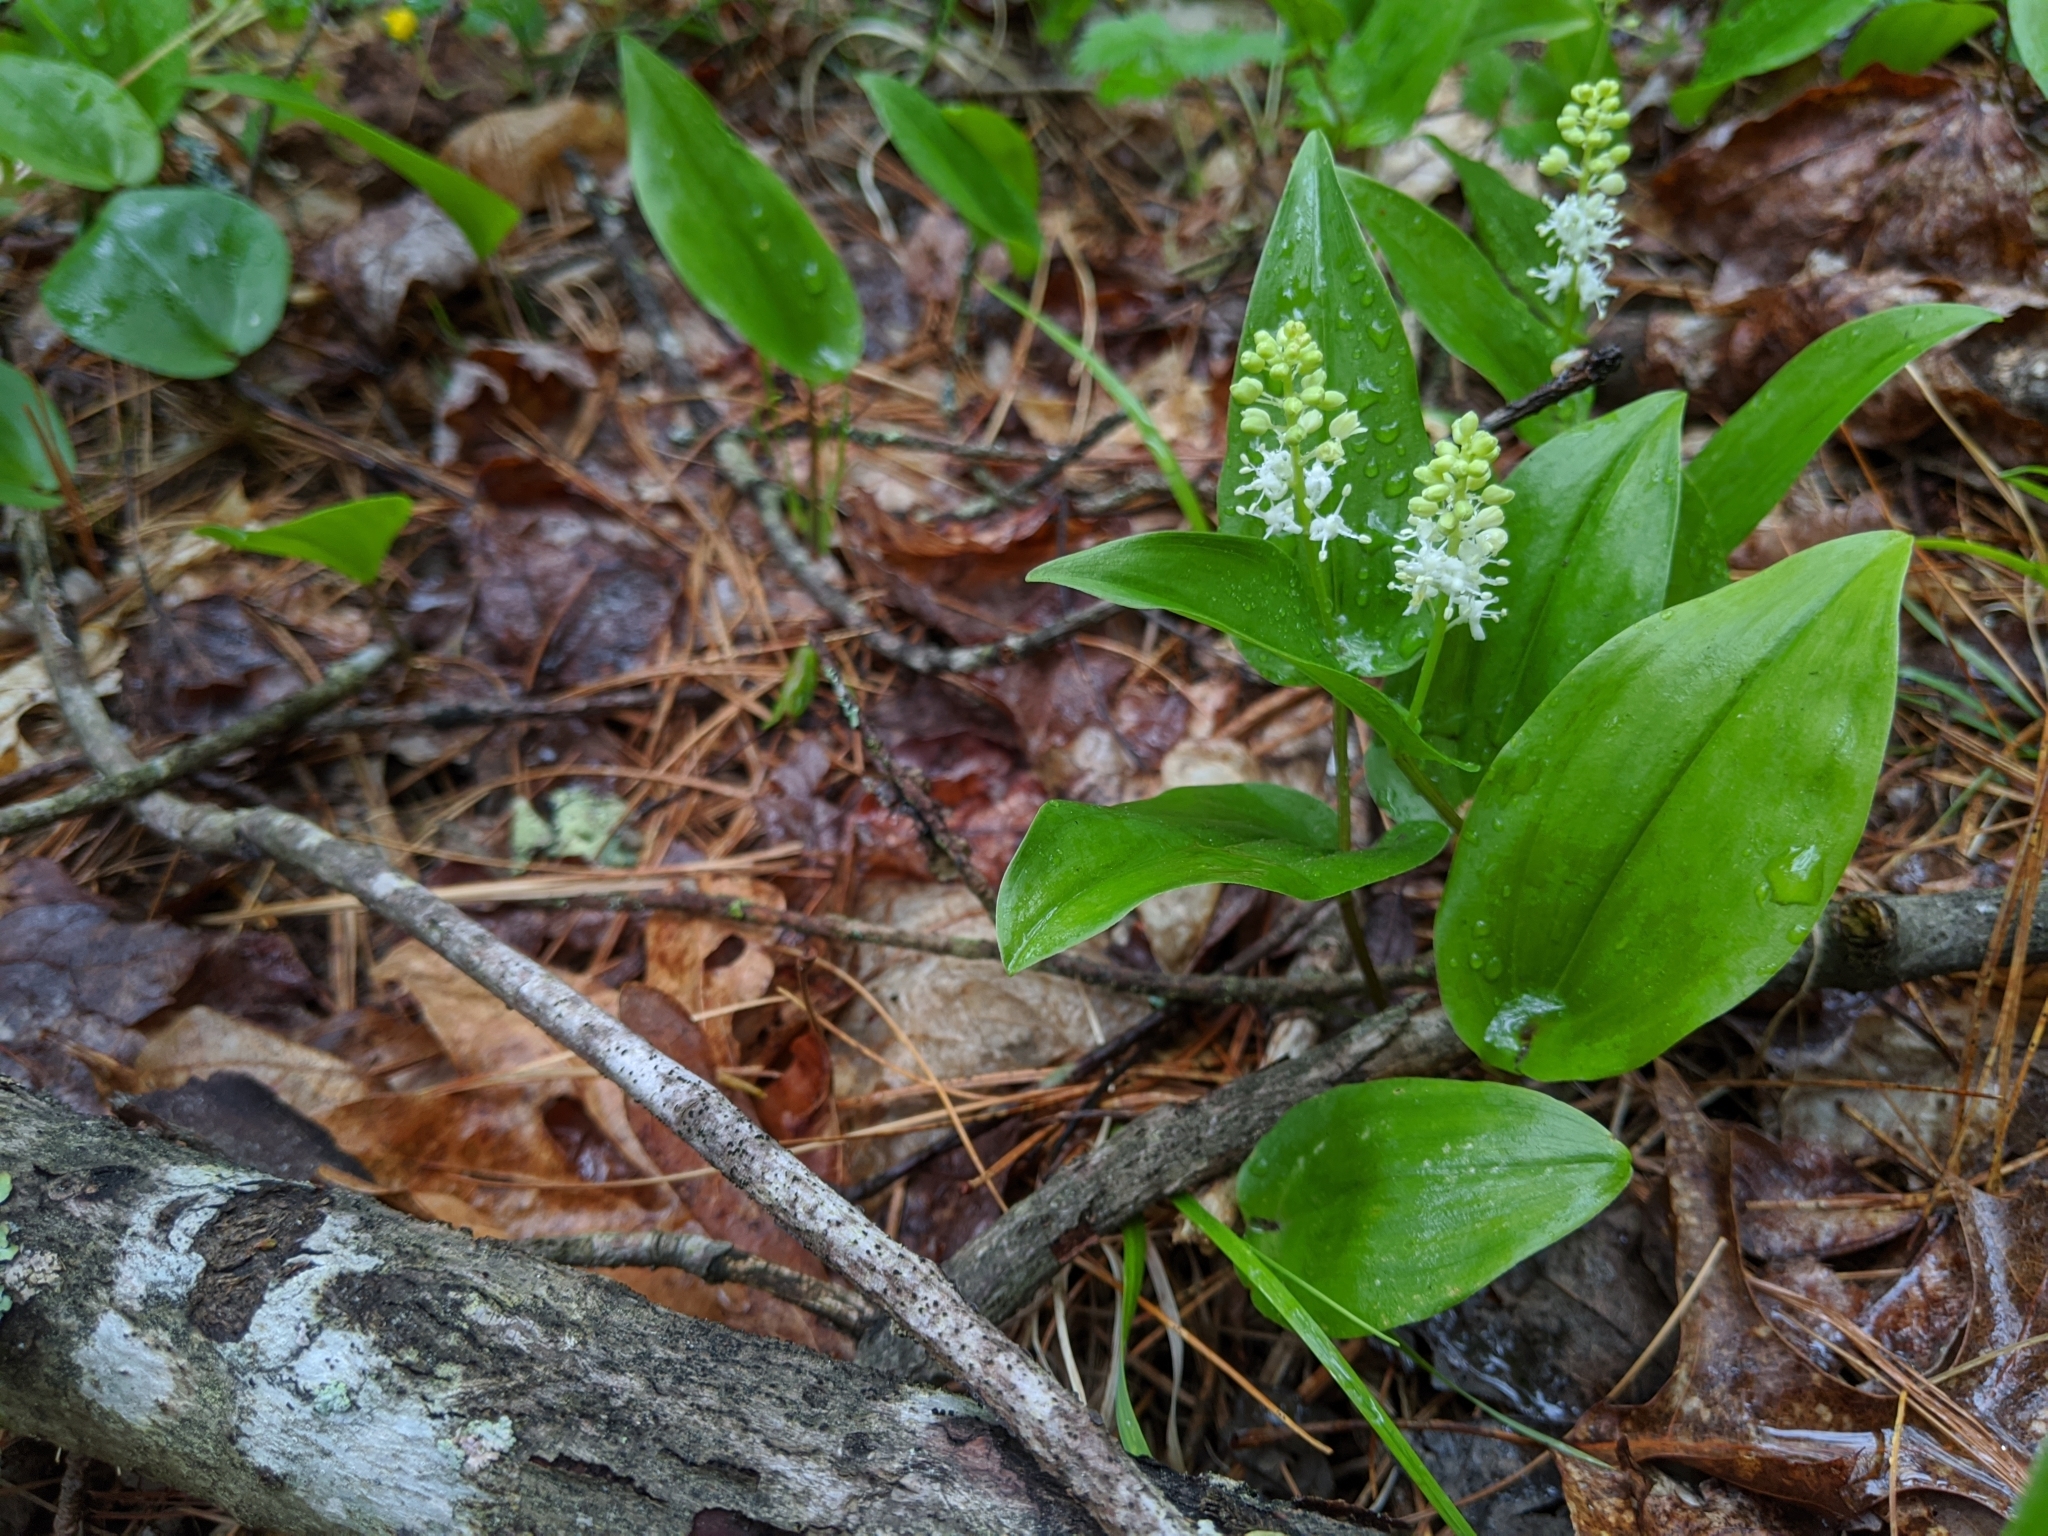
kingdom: Plantae
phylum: Tracheophyta
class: Liliopsida
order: Asparagales
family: Asparagaceae
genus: Maianthemum
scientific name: Maianthemum canadense
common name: False lily-of-the-valley
